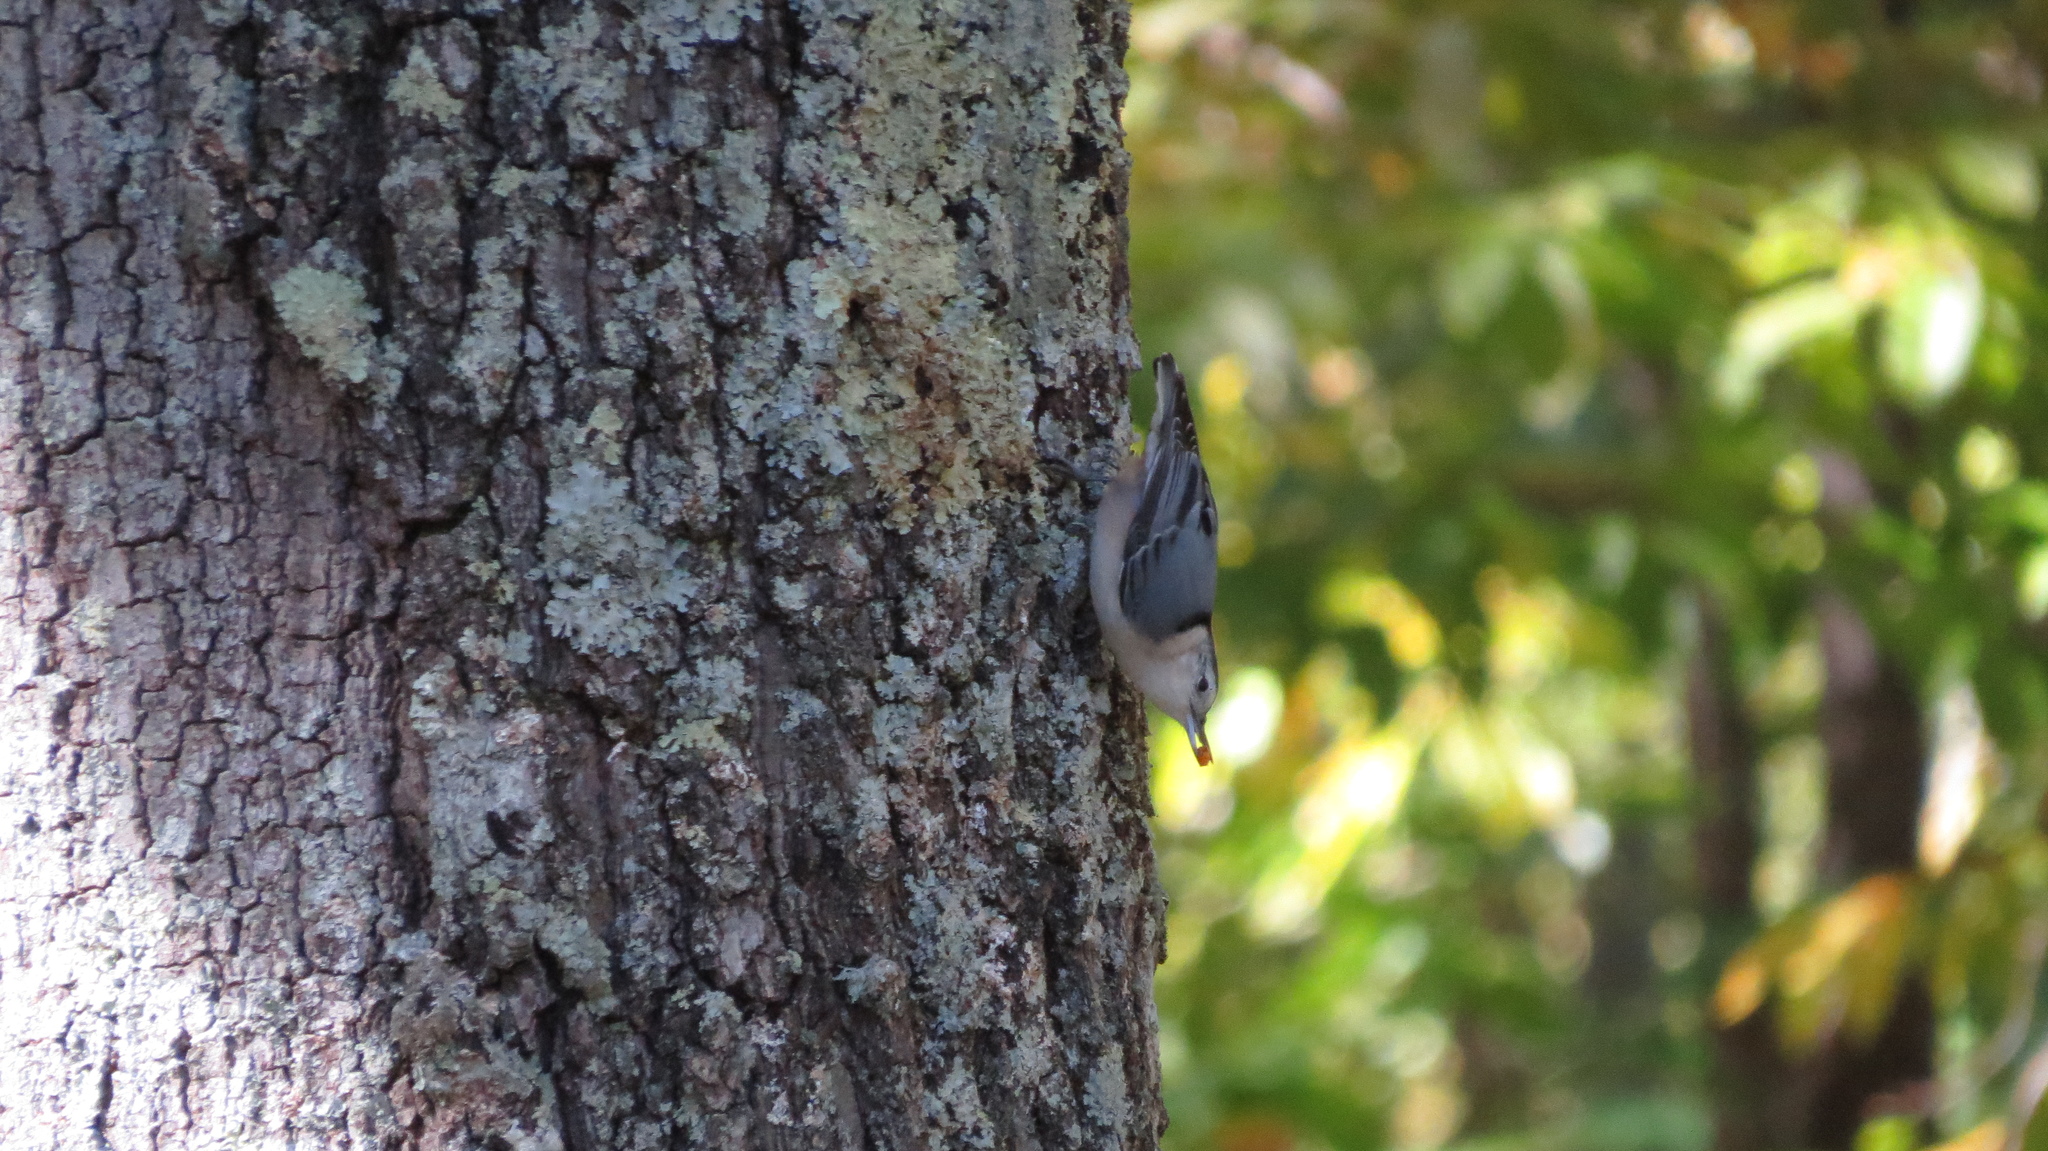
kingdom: Animalia
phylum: Chordata
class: Aves
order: Passeriformes
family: Sittidae
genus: Sitta
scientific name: Sitta carolinensis
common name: White-breasted nuthatch
